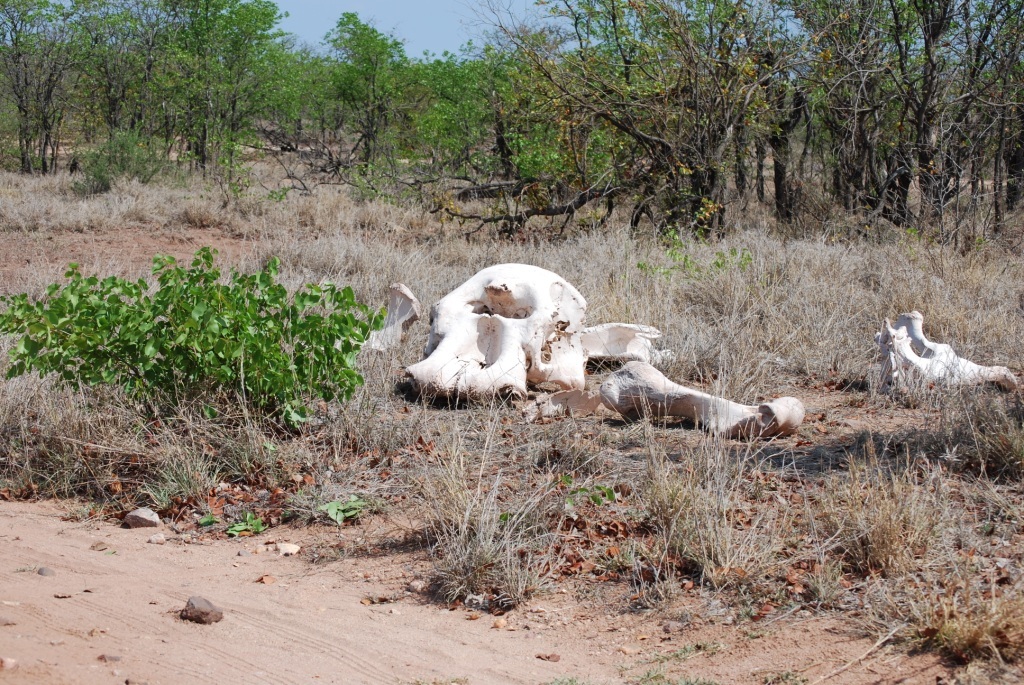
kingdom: Animalia
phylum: Chordata
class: Mammalia
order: Proboscidea
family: Elephantidae
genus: Loxodonta
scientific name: Loxodonta africana
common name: African elephant
